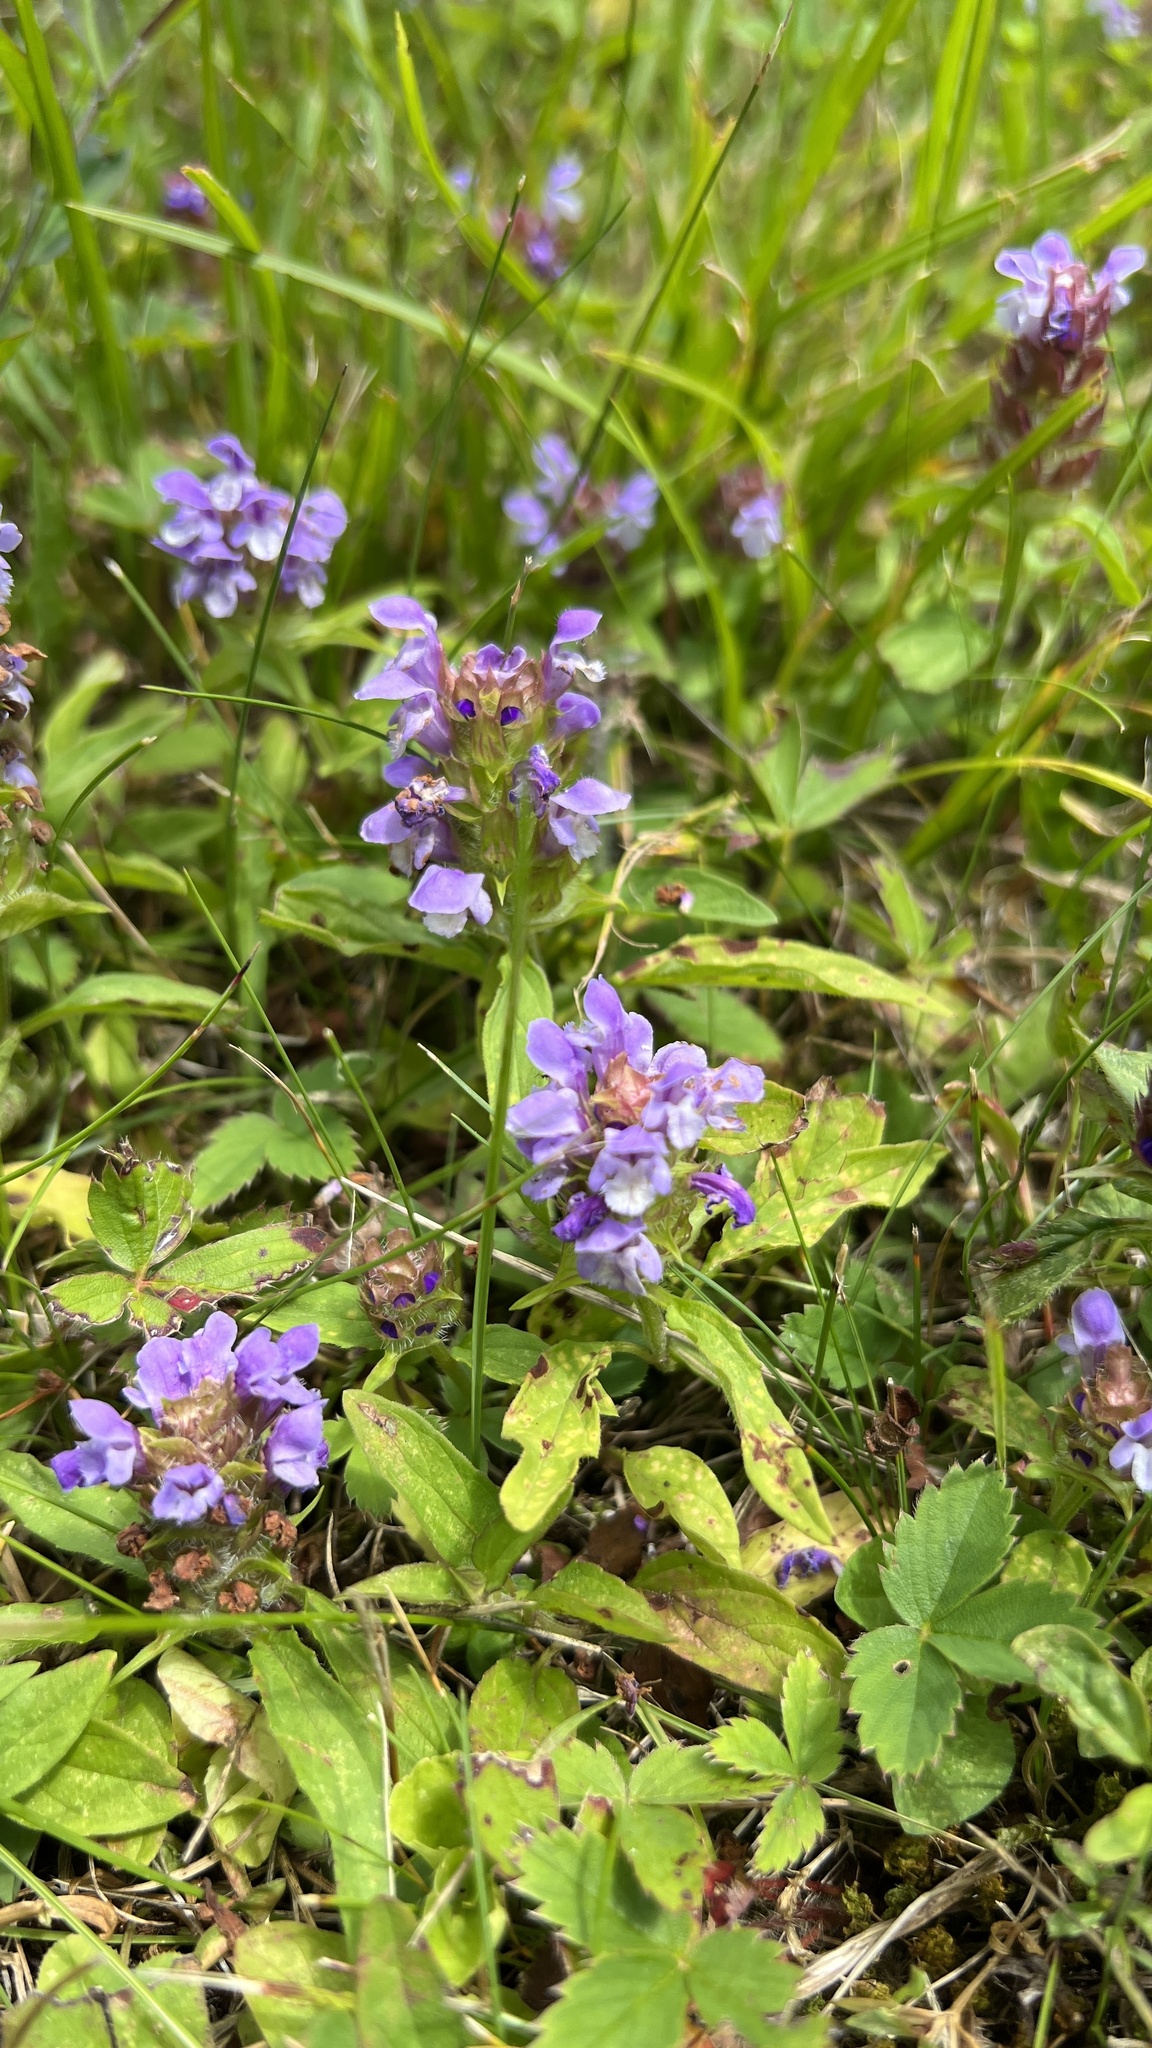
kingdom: Plantae
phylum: Tracheophyta
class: Magnoliopsida
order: Lamiales
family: Lamiaceae
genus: Prunella
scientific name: Prunella vulgaris
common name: Heal-all
